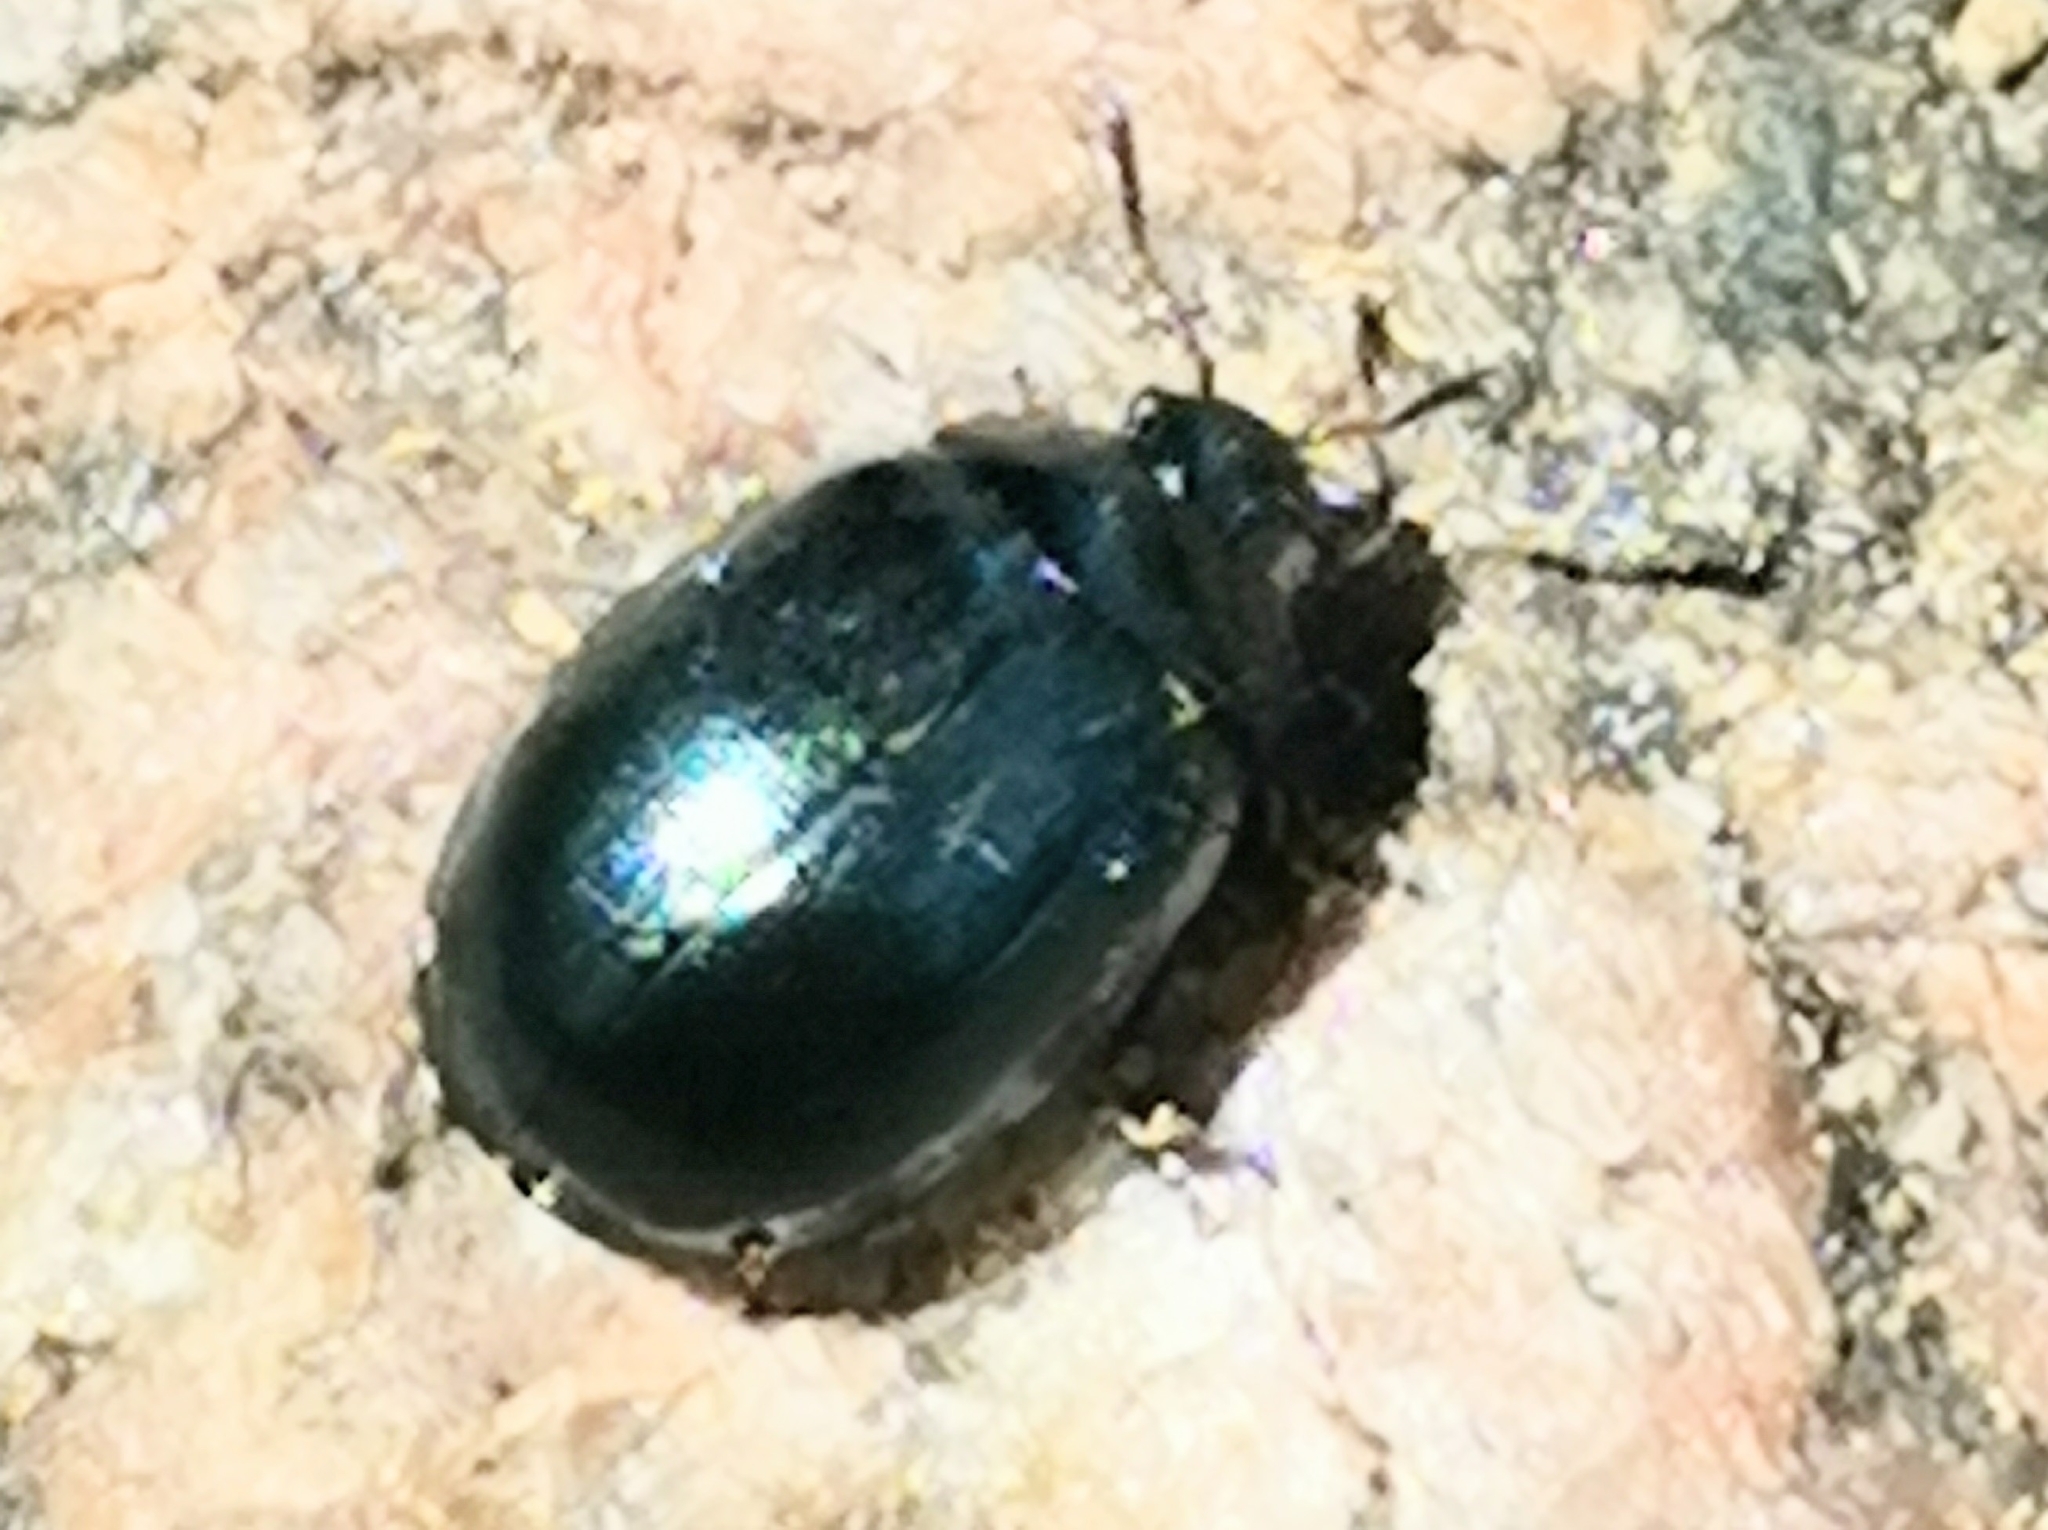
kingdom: Animalia
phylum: Arthropoda
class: Insecta
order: Coleoptera
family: Chrysomelidae
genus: Plagiodera
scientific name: Plagiodera versicolora
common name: Imported willow leaf beetle
